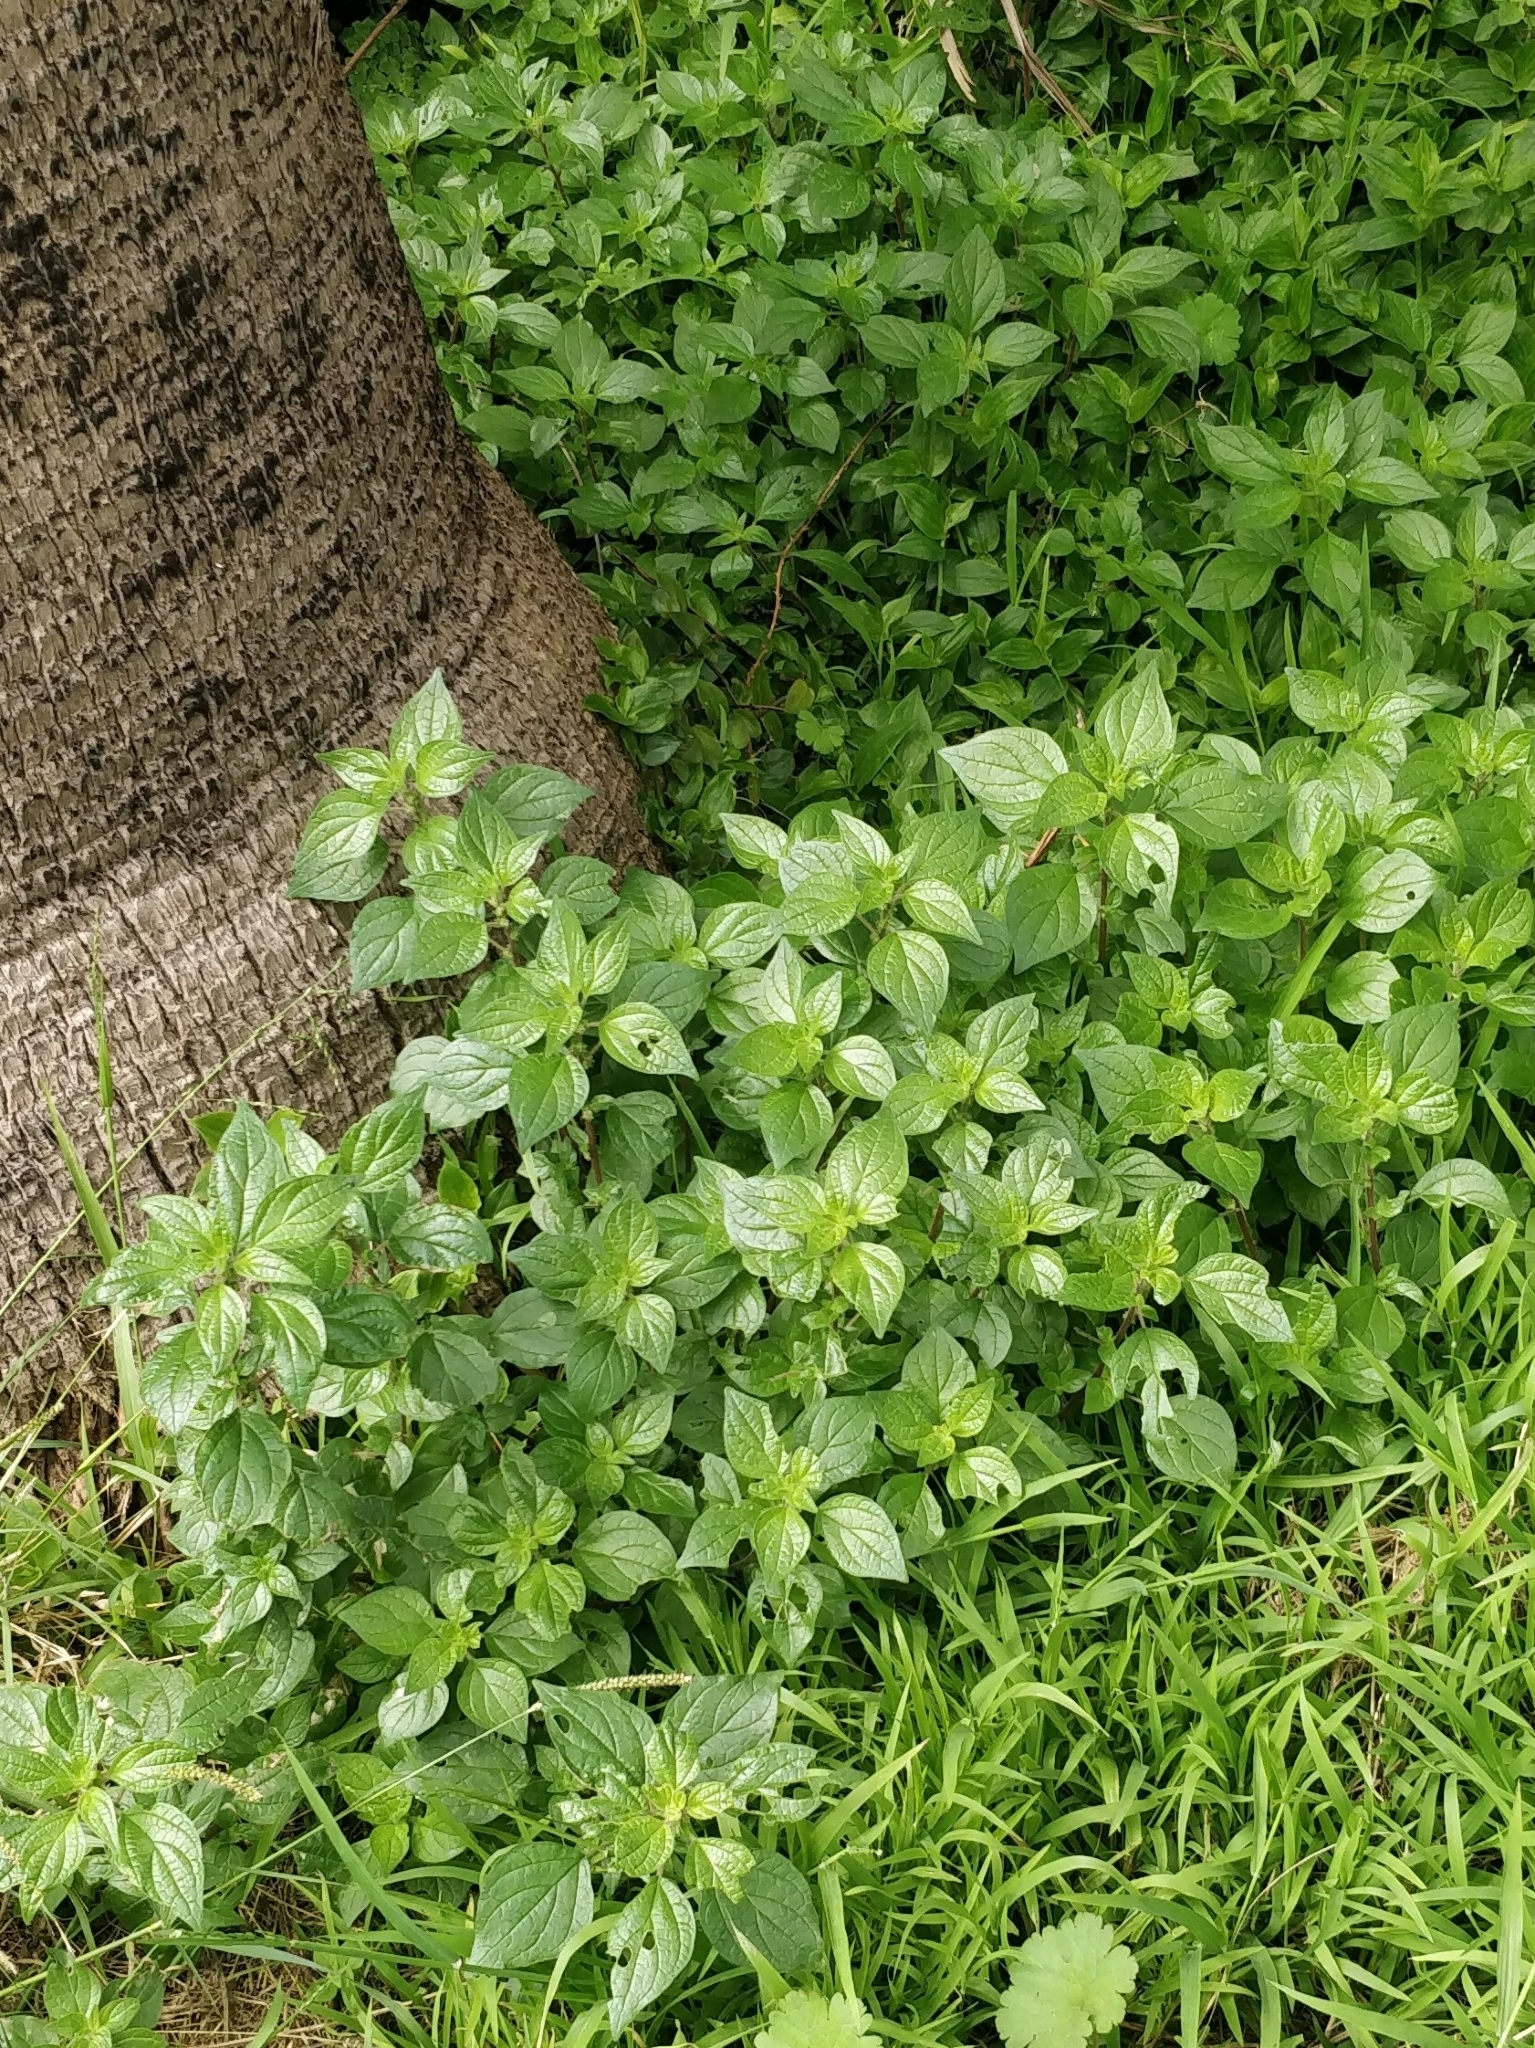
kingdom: Plantae
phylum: Tracheophyta
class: Magnoliopsida
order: Rosales
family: Urticaceae
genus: Parietaria
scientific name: Parietaria judaica
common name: Pellitory-of-the-wall
